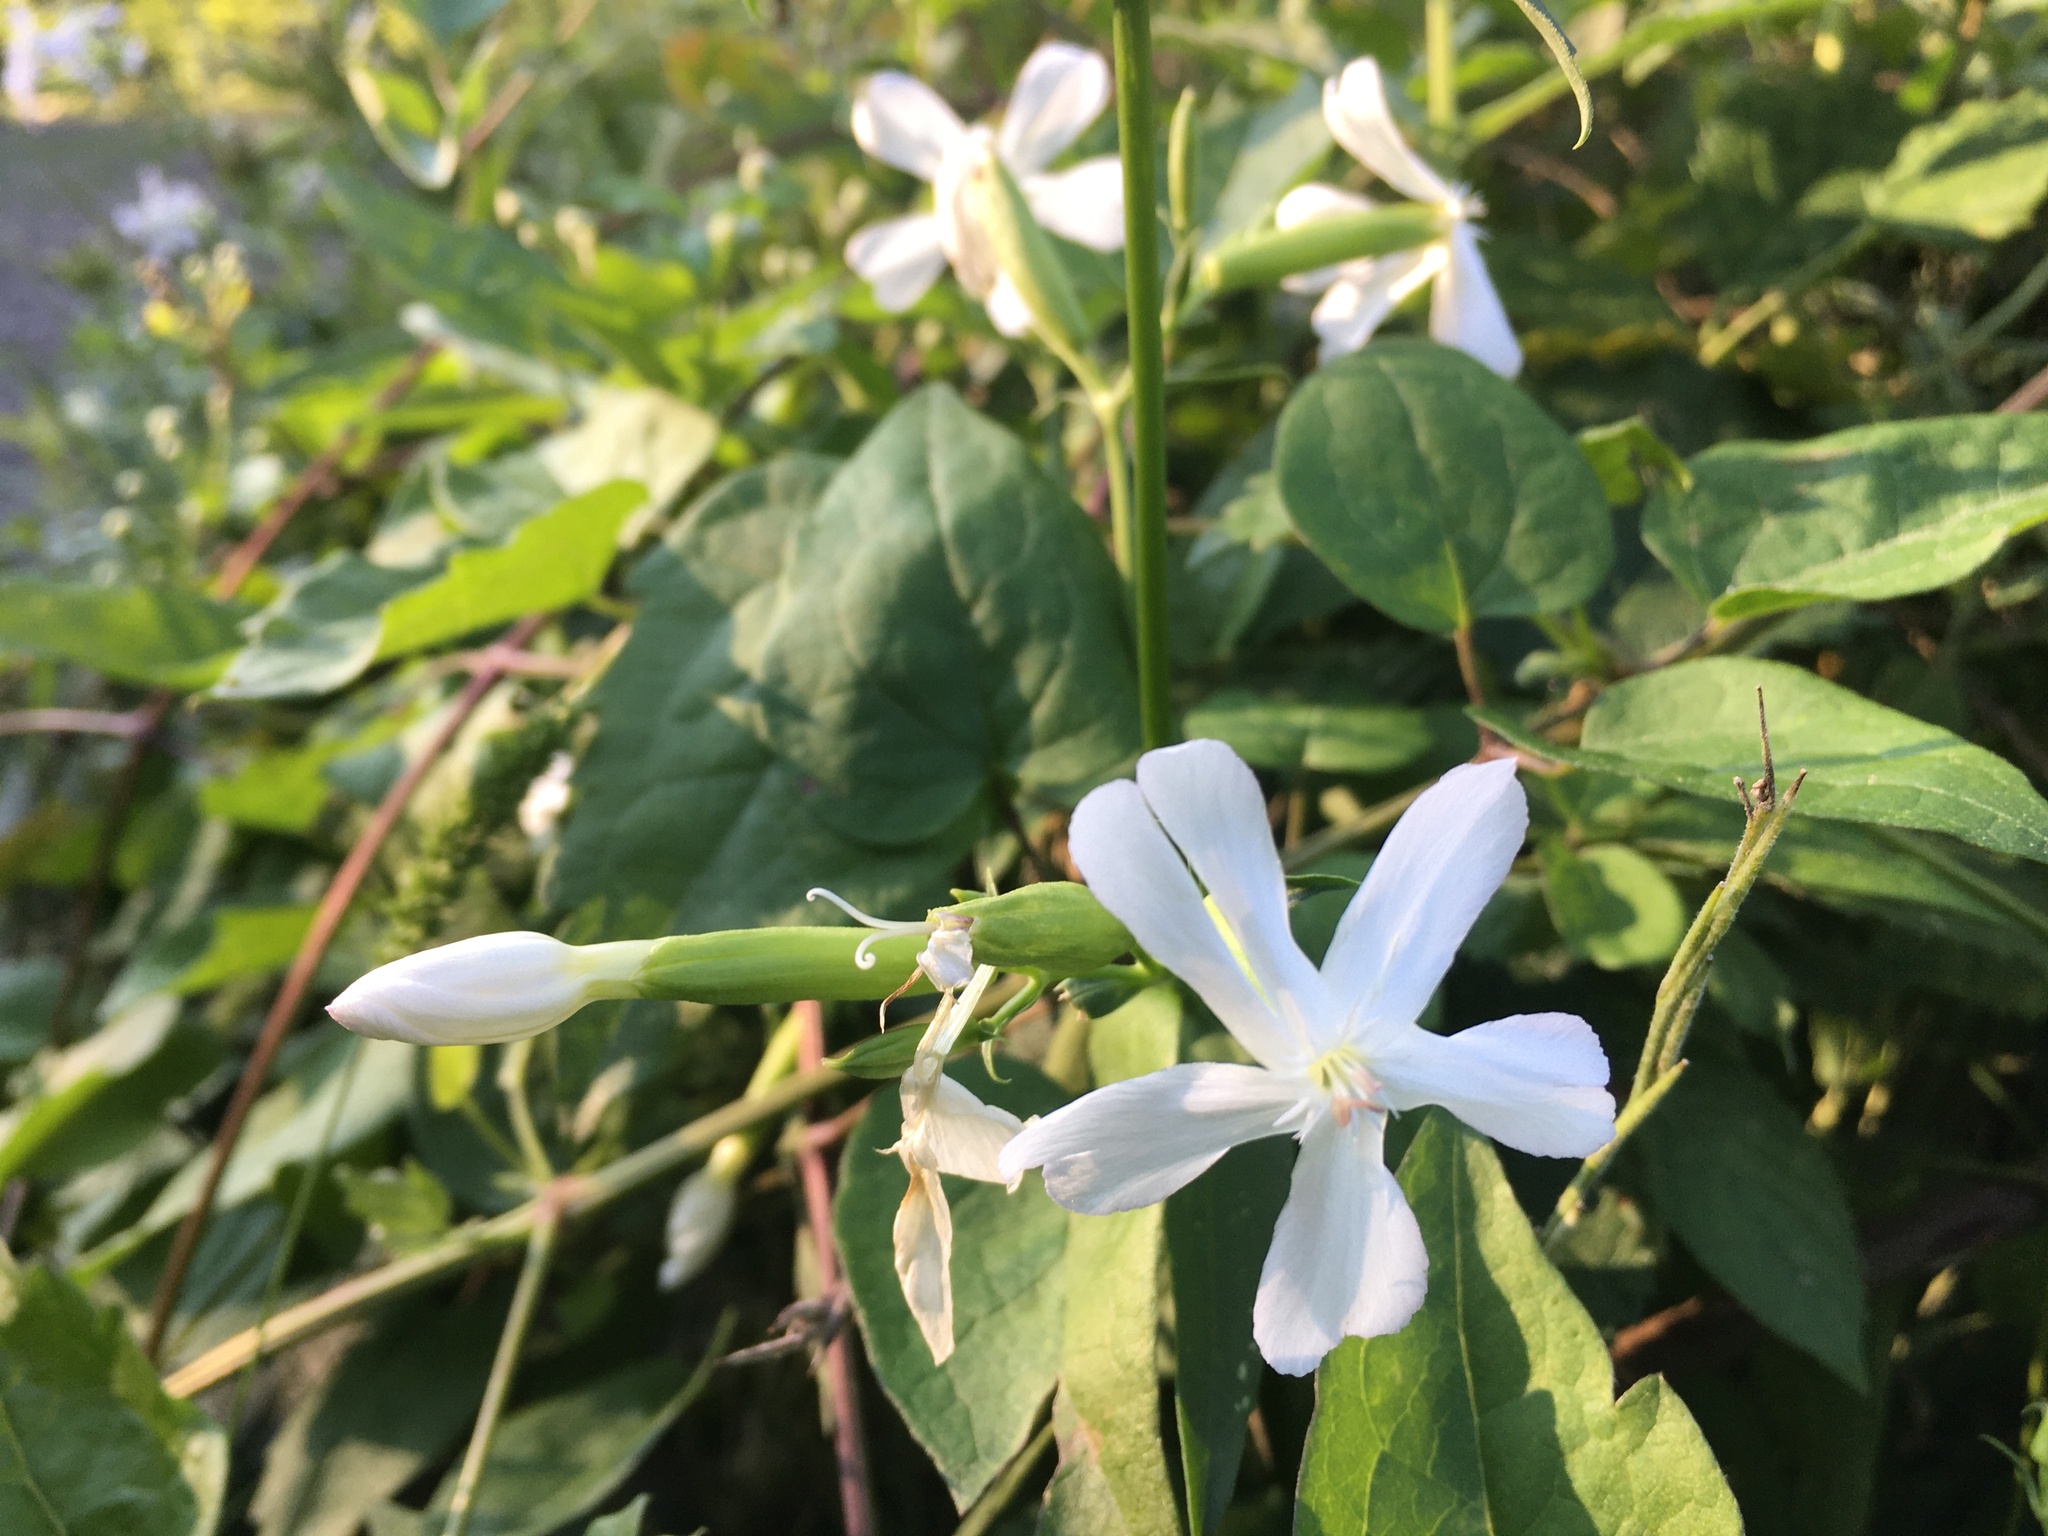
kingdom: Plantae
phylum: Tracheophyta
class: Magnoliopsida
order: Caryophyllales
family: Caryophyllaceae
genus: Saponaria
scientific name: Saponaria officinalis
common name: Soapwort
